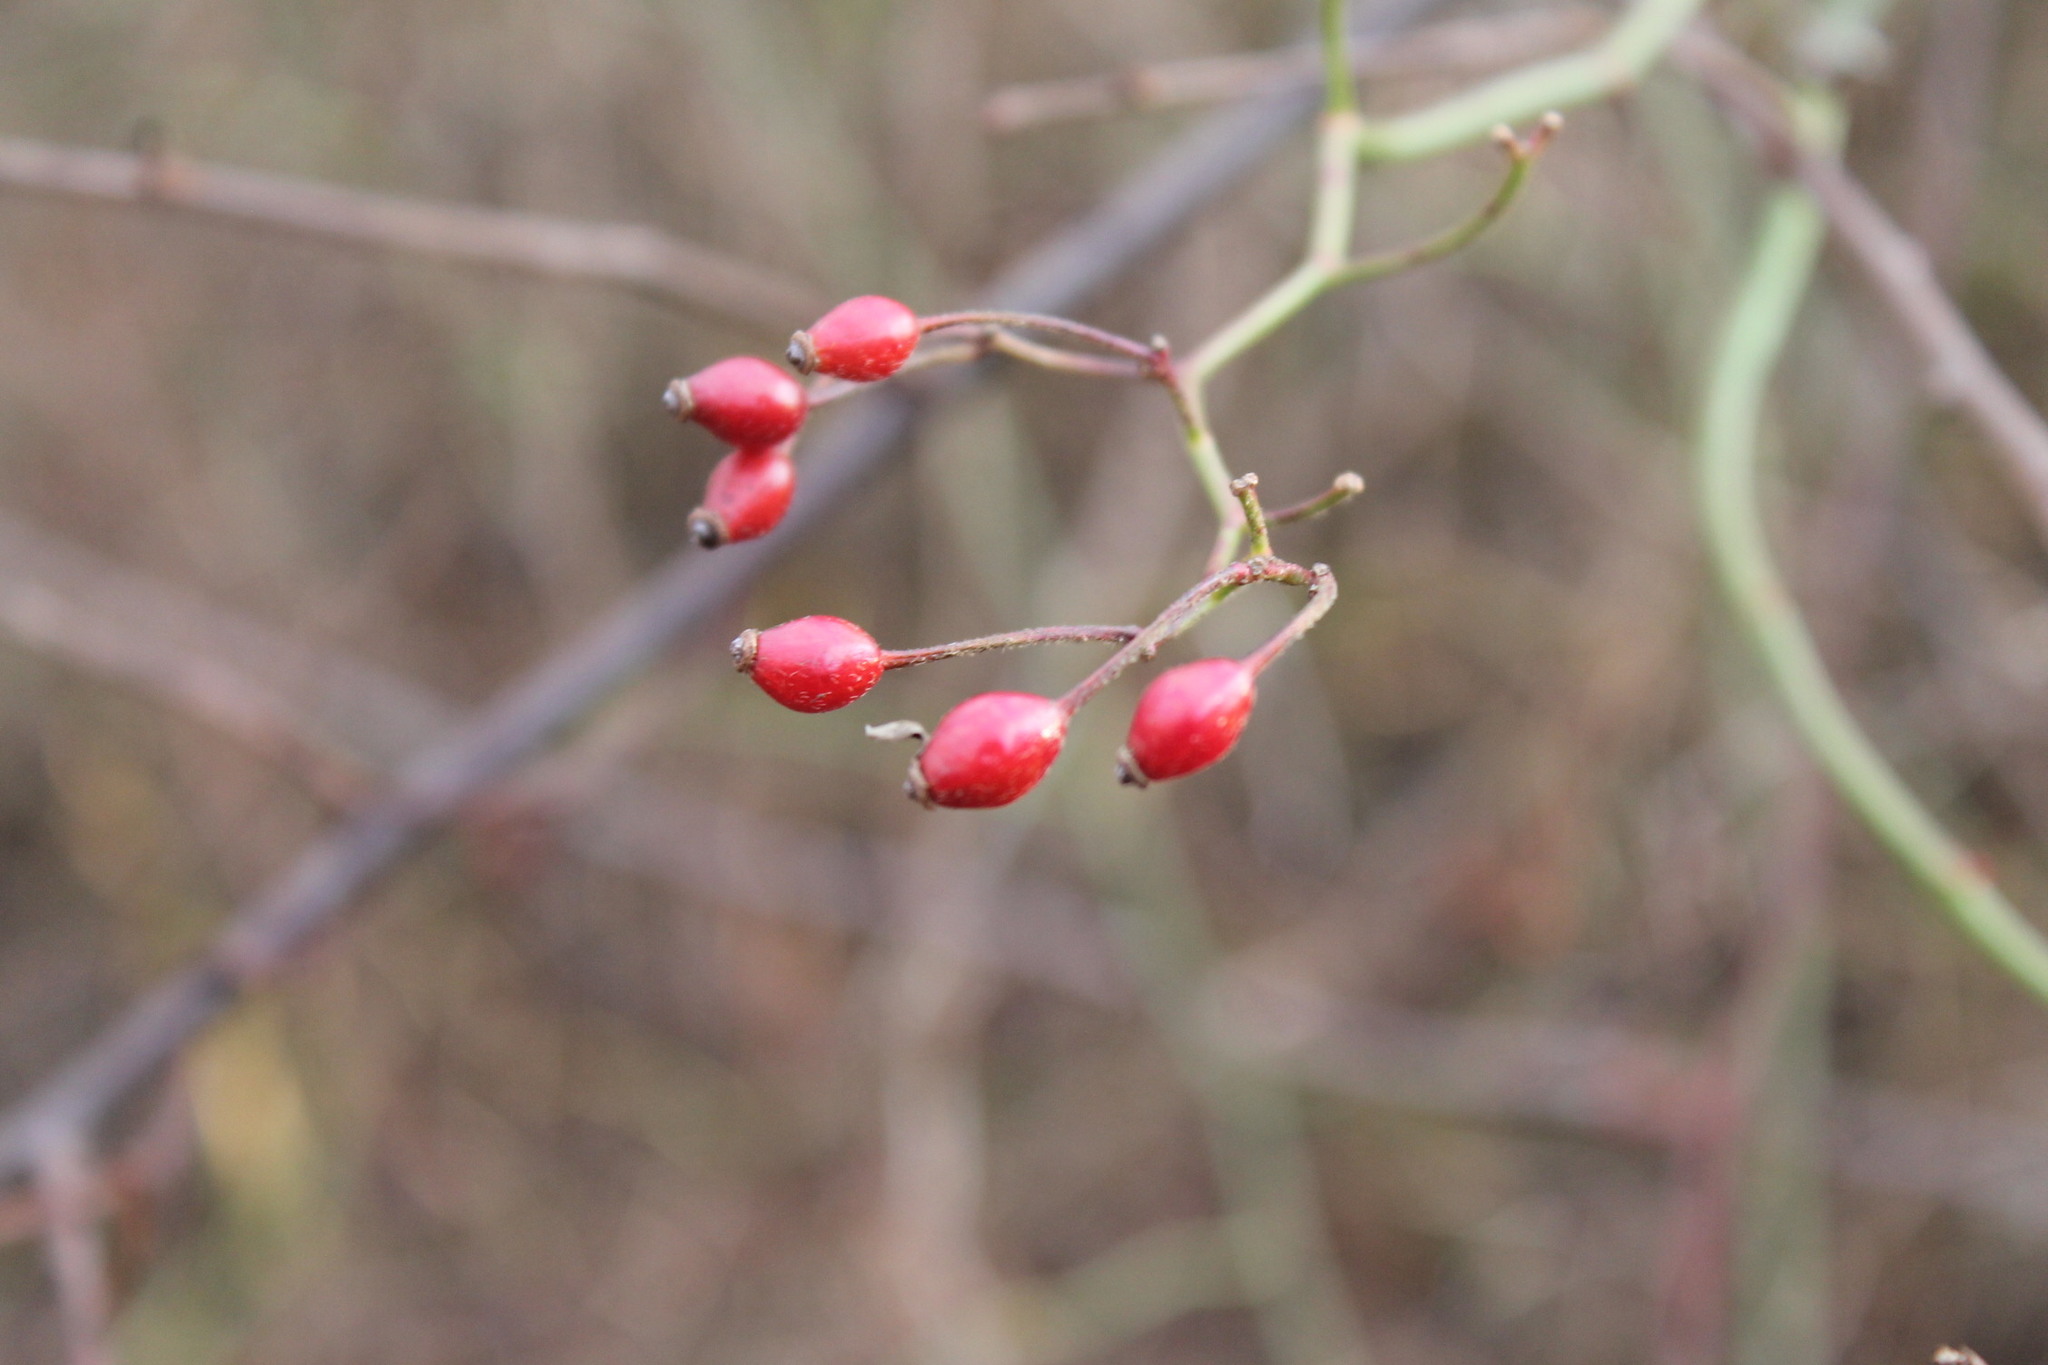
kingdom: Plantae
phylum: Tracheophyta
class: Magnoliopsida
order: Rosales
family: Rosaceae
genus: Rosa
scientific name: Rosa multiflora
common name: Multiflora rose
